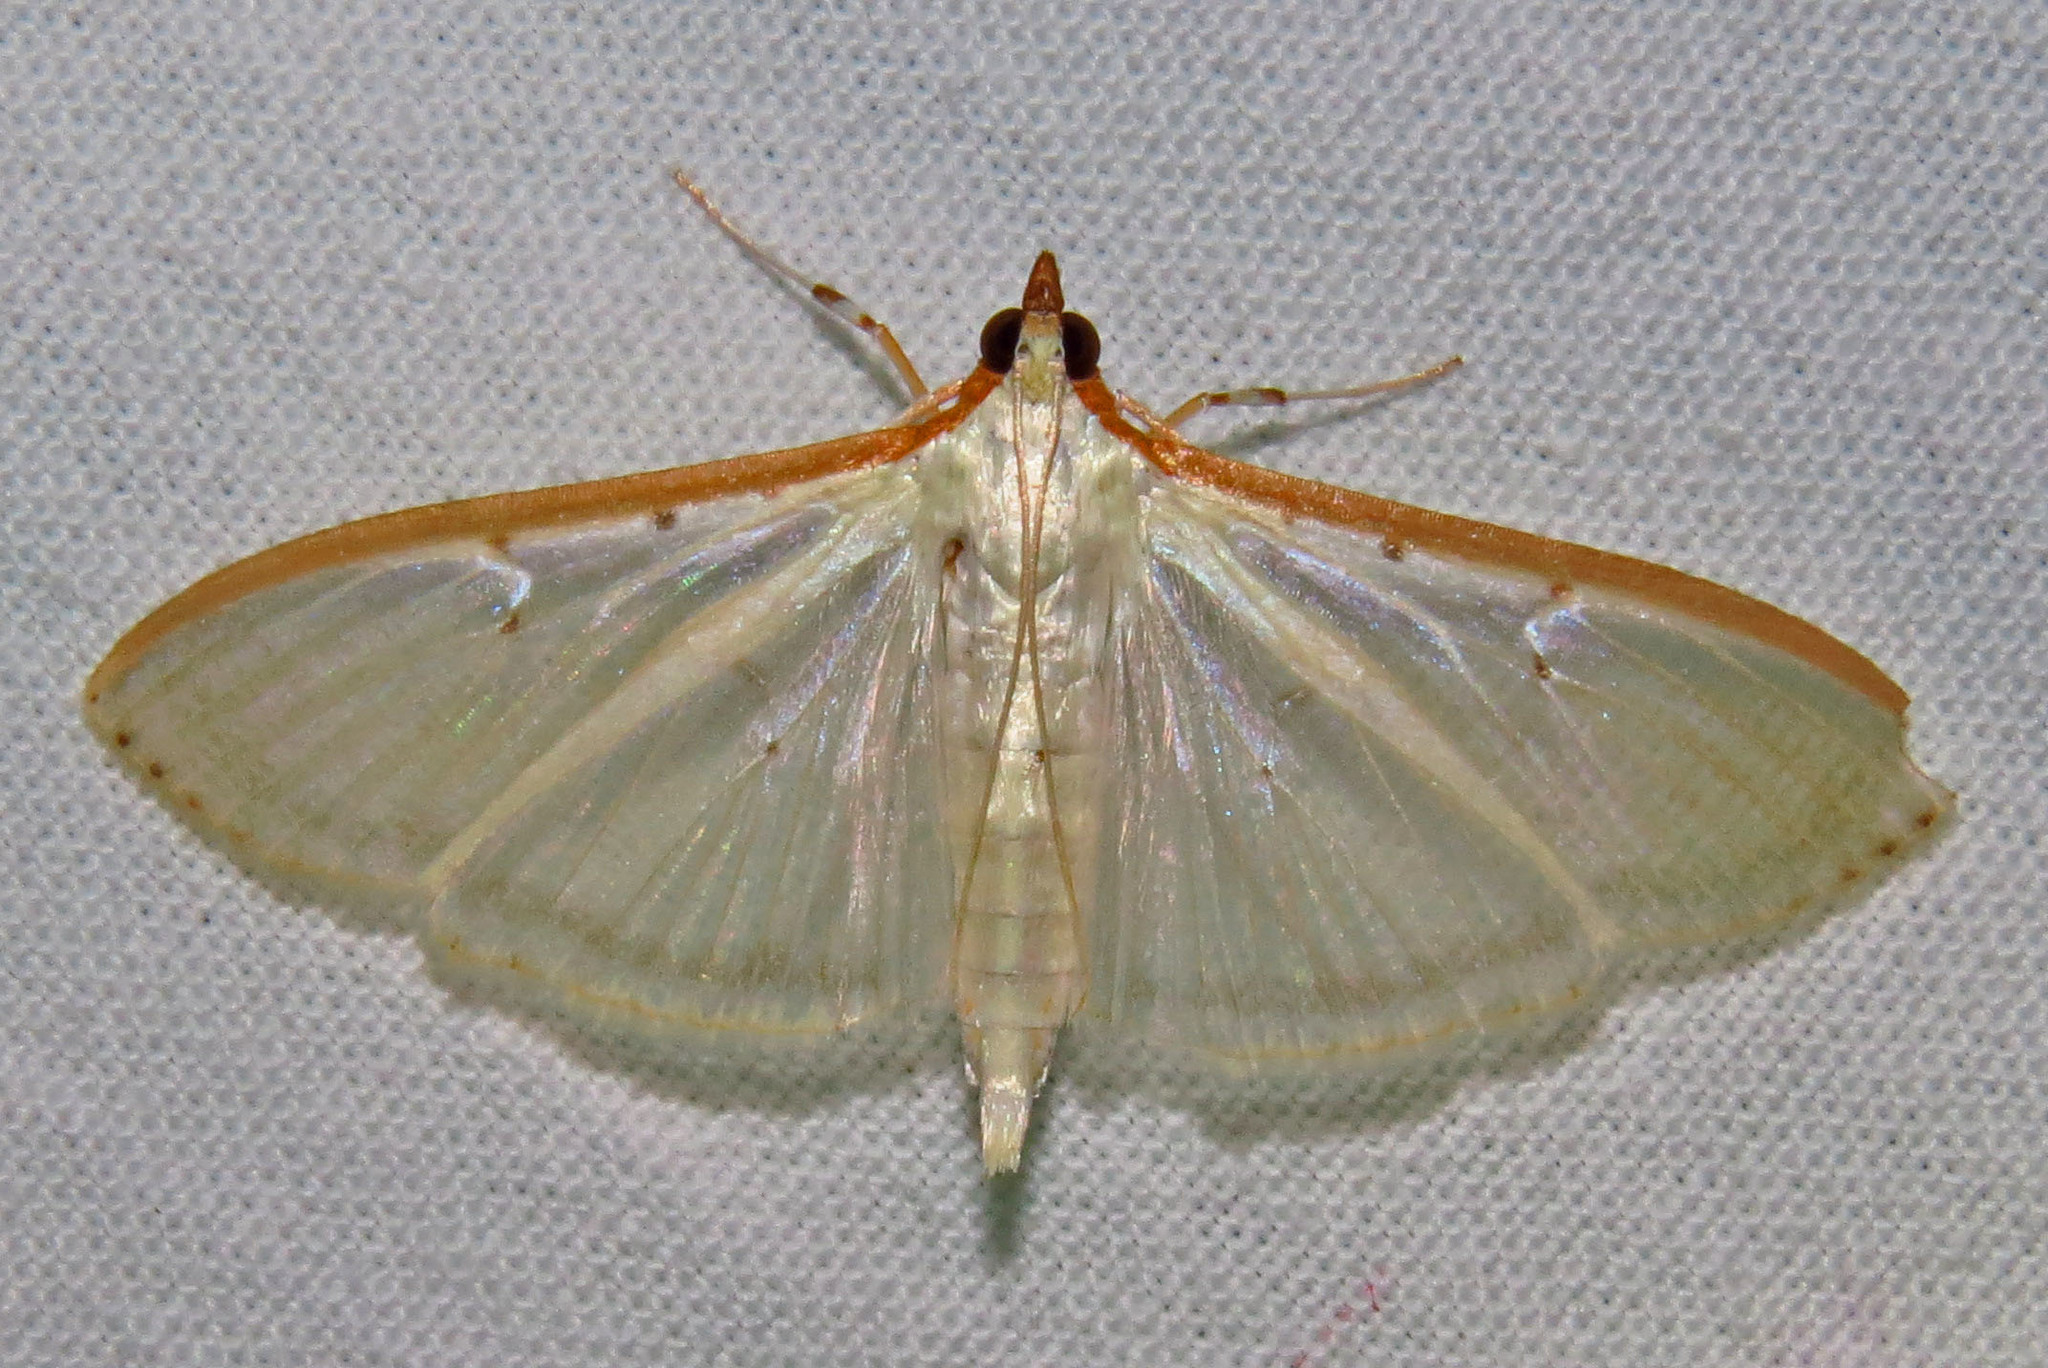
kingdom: Animalia
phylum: Arthropoda
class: Insecta
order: Lepidoptera
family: Crambidae
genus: Palpita
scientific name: Palpita quadristigmalis
